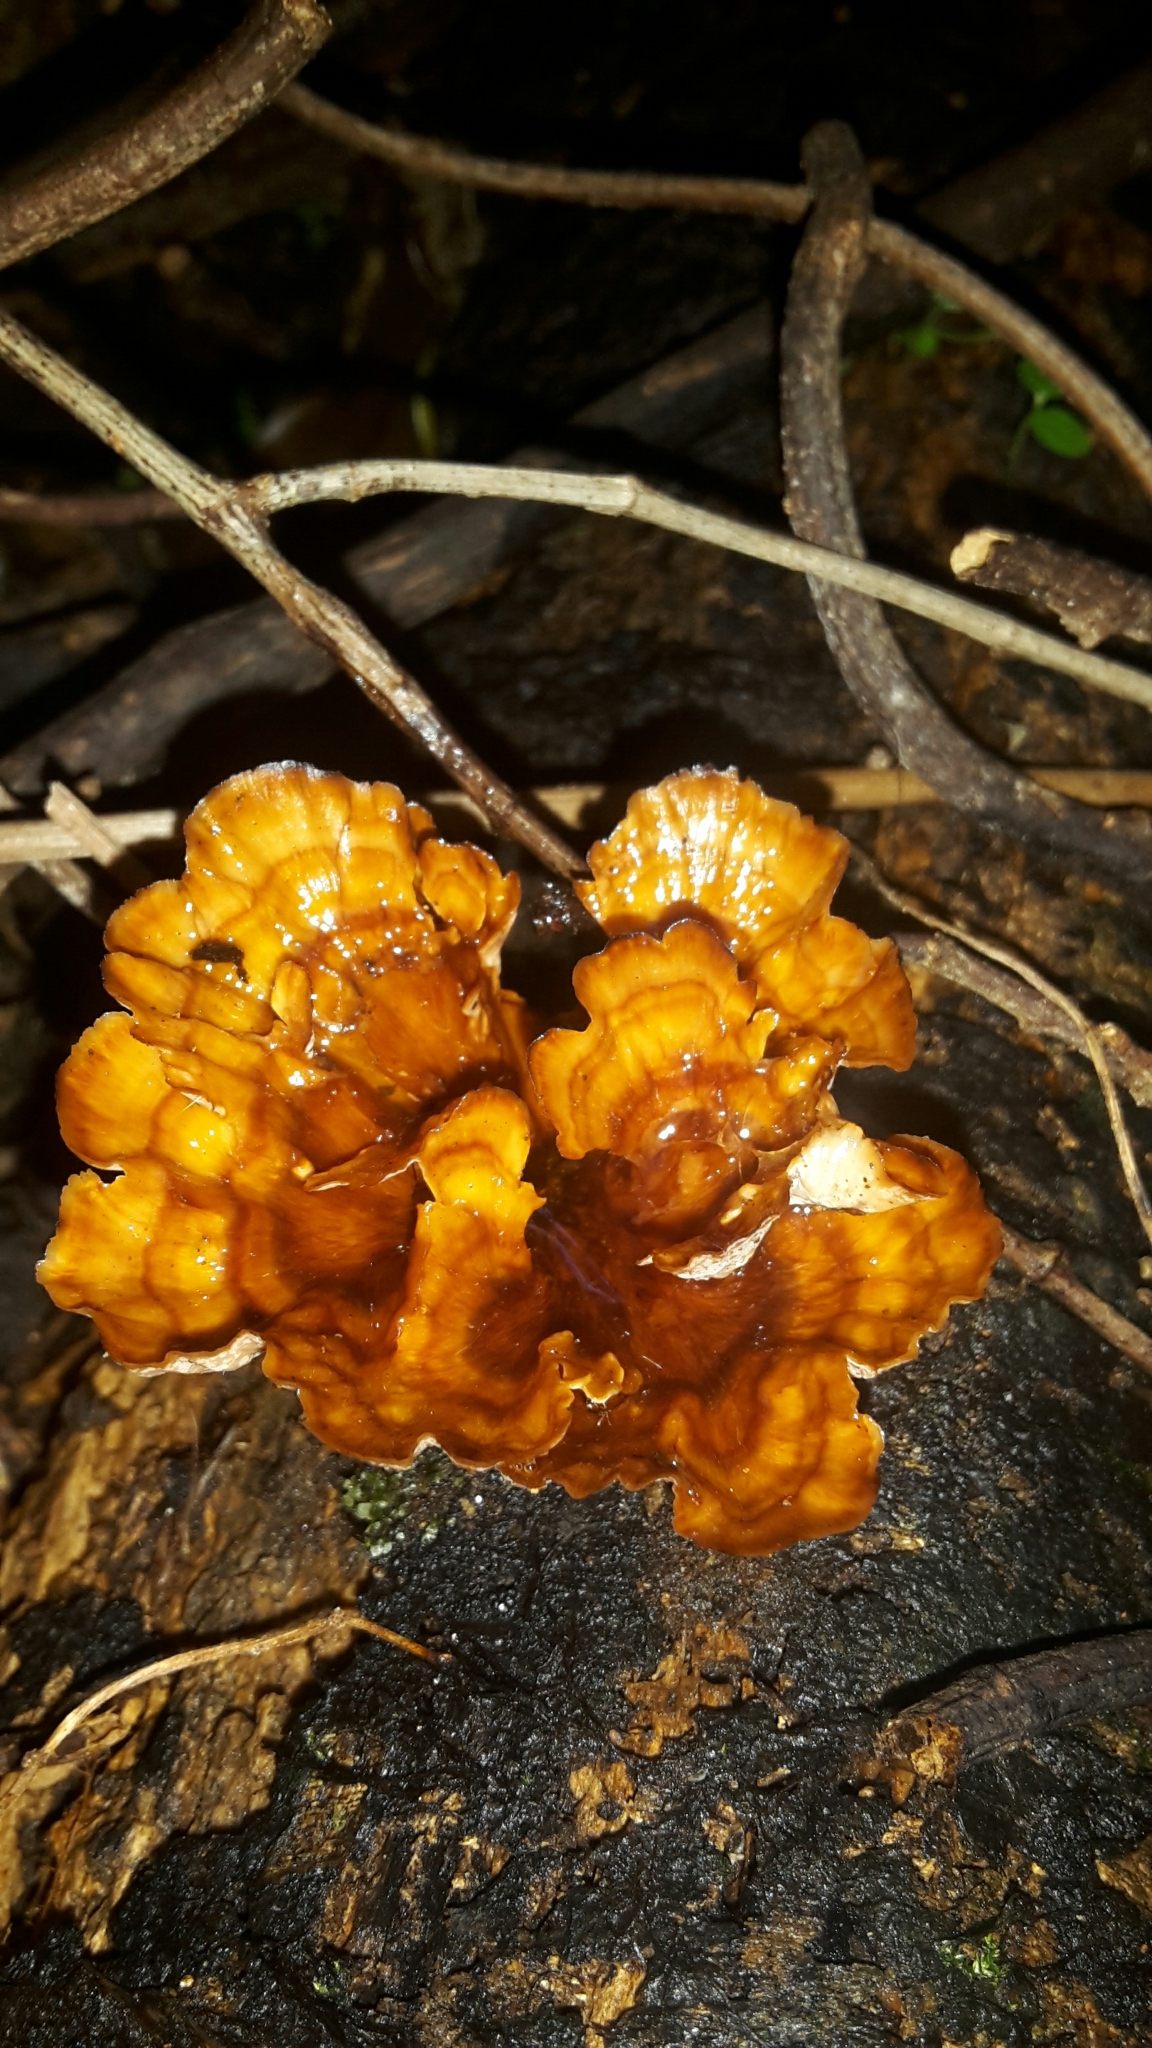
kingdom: Fungi
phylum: Basidiomycota
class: Agaricomycetes
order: Polyporales
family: Podoscyphaceae
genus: Podoscypha
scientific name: Podoscypha petalodes
